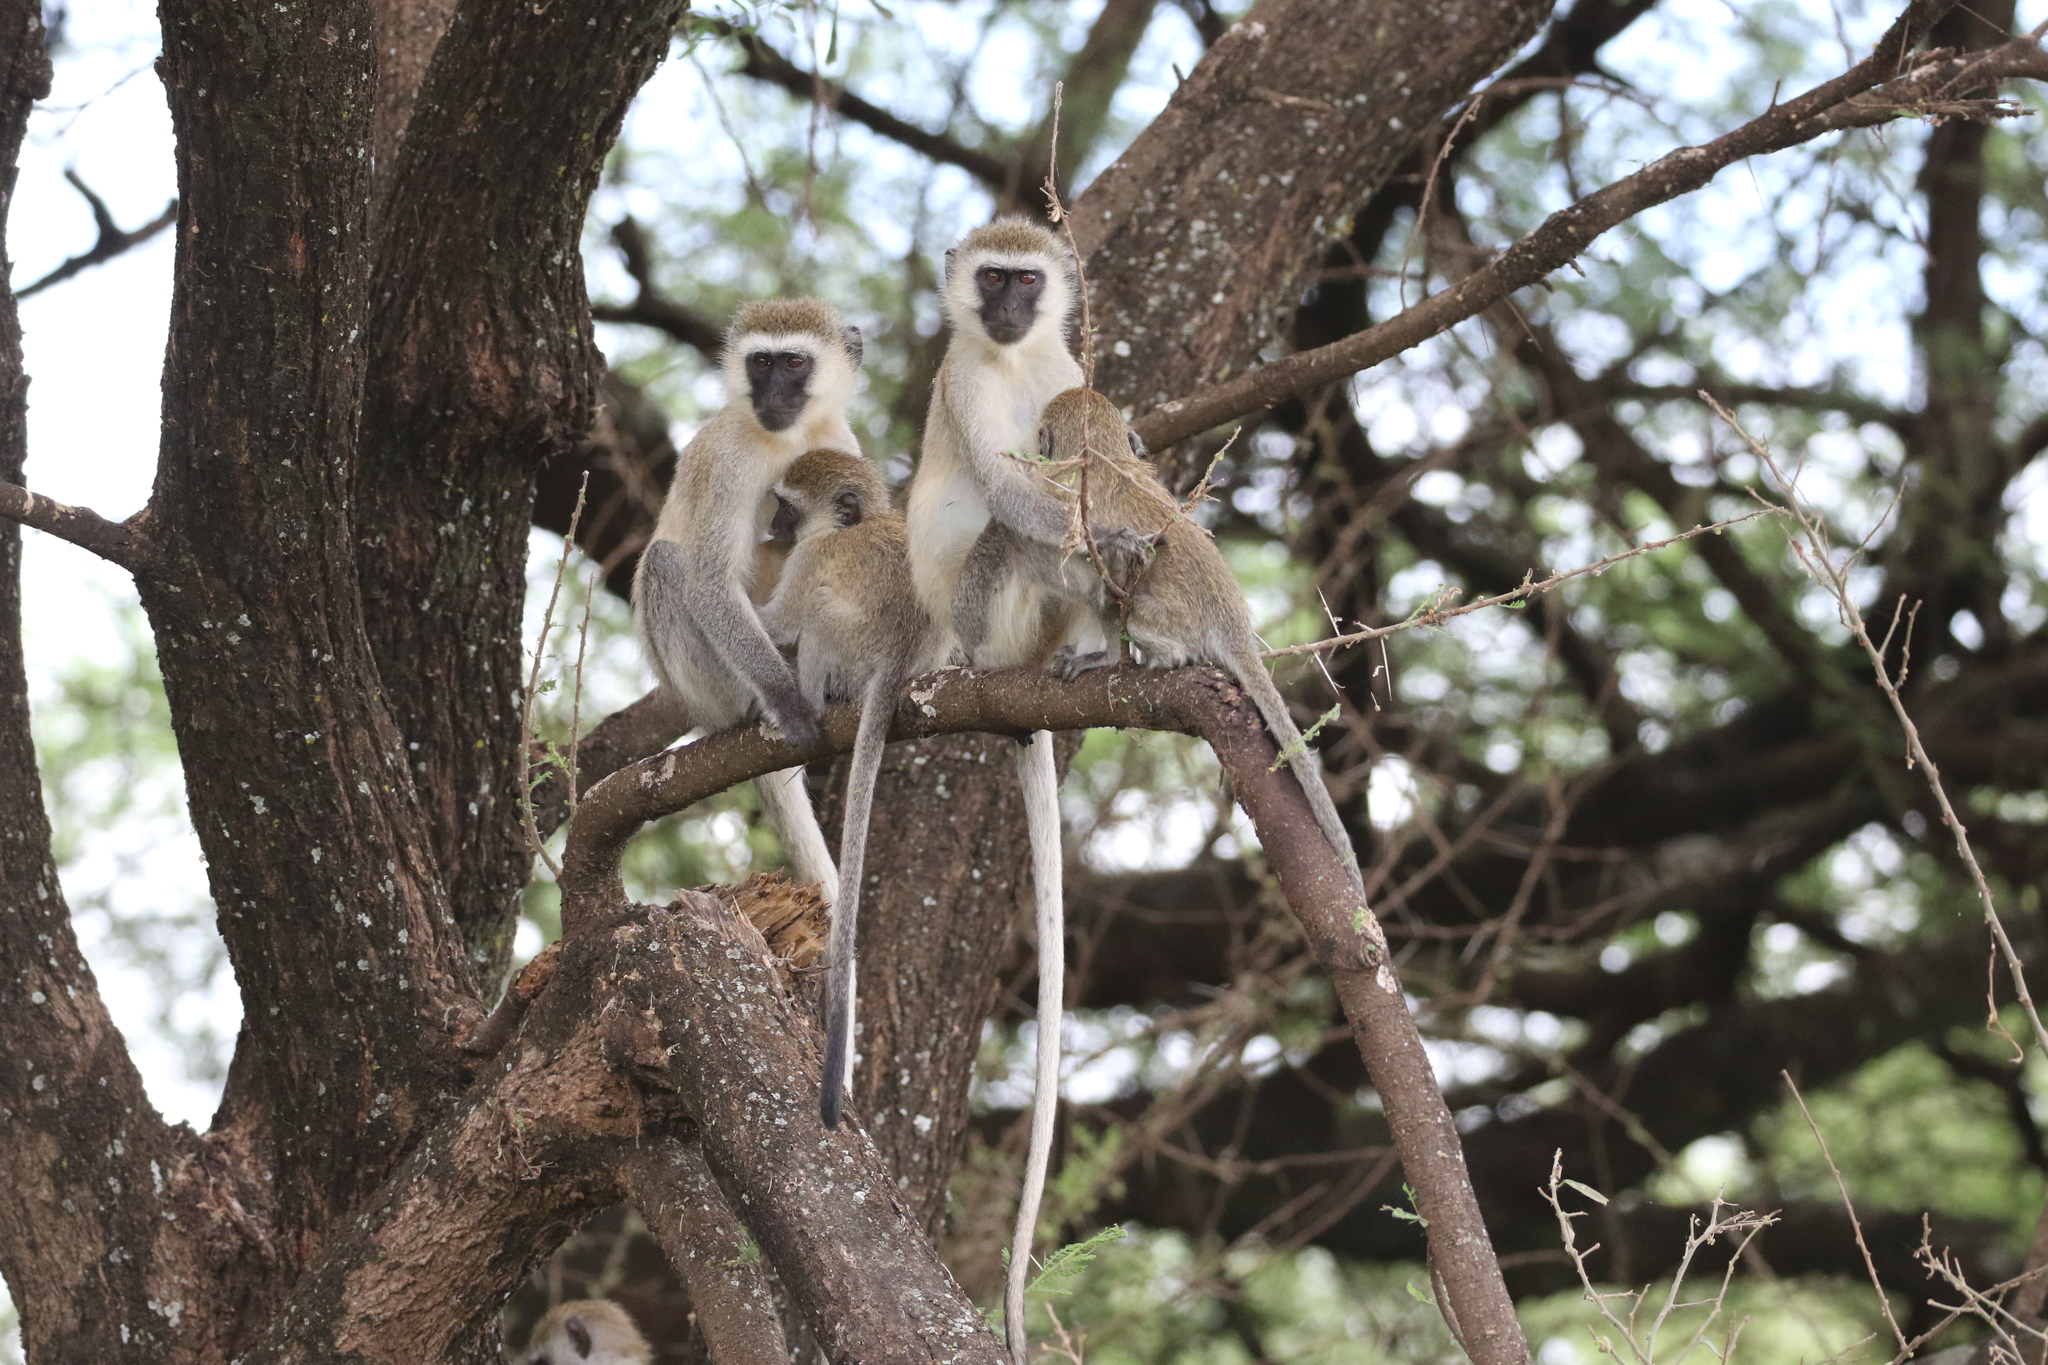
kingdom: Animalia
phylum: Chordata
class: Mammalia
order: Primates
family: Cercopithecidae
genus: Chlorocebus
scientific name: Chlorocebus pygerythrus
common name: Vervet monkey
